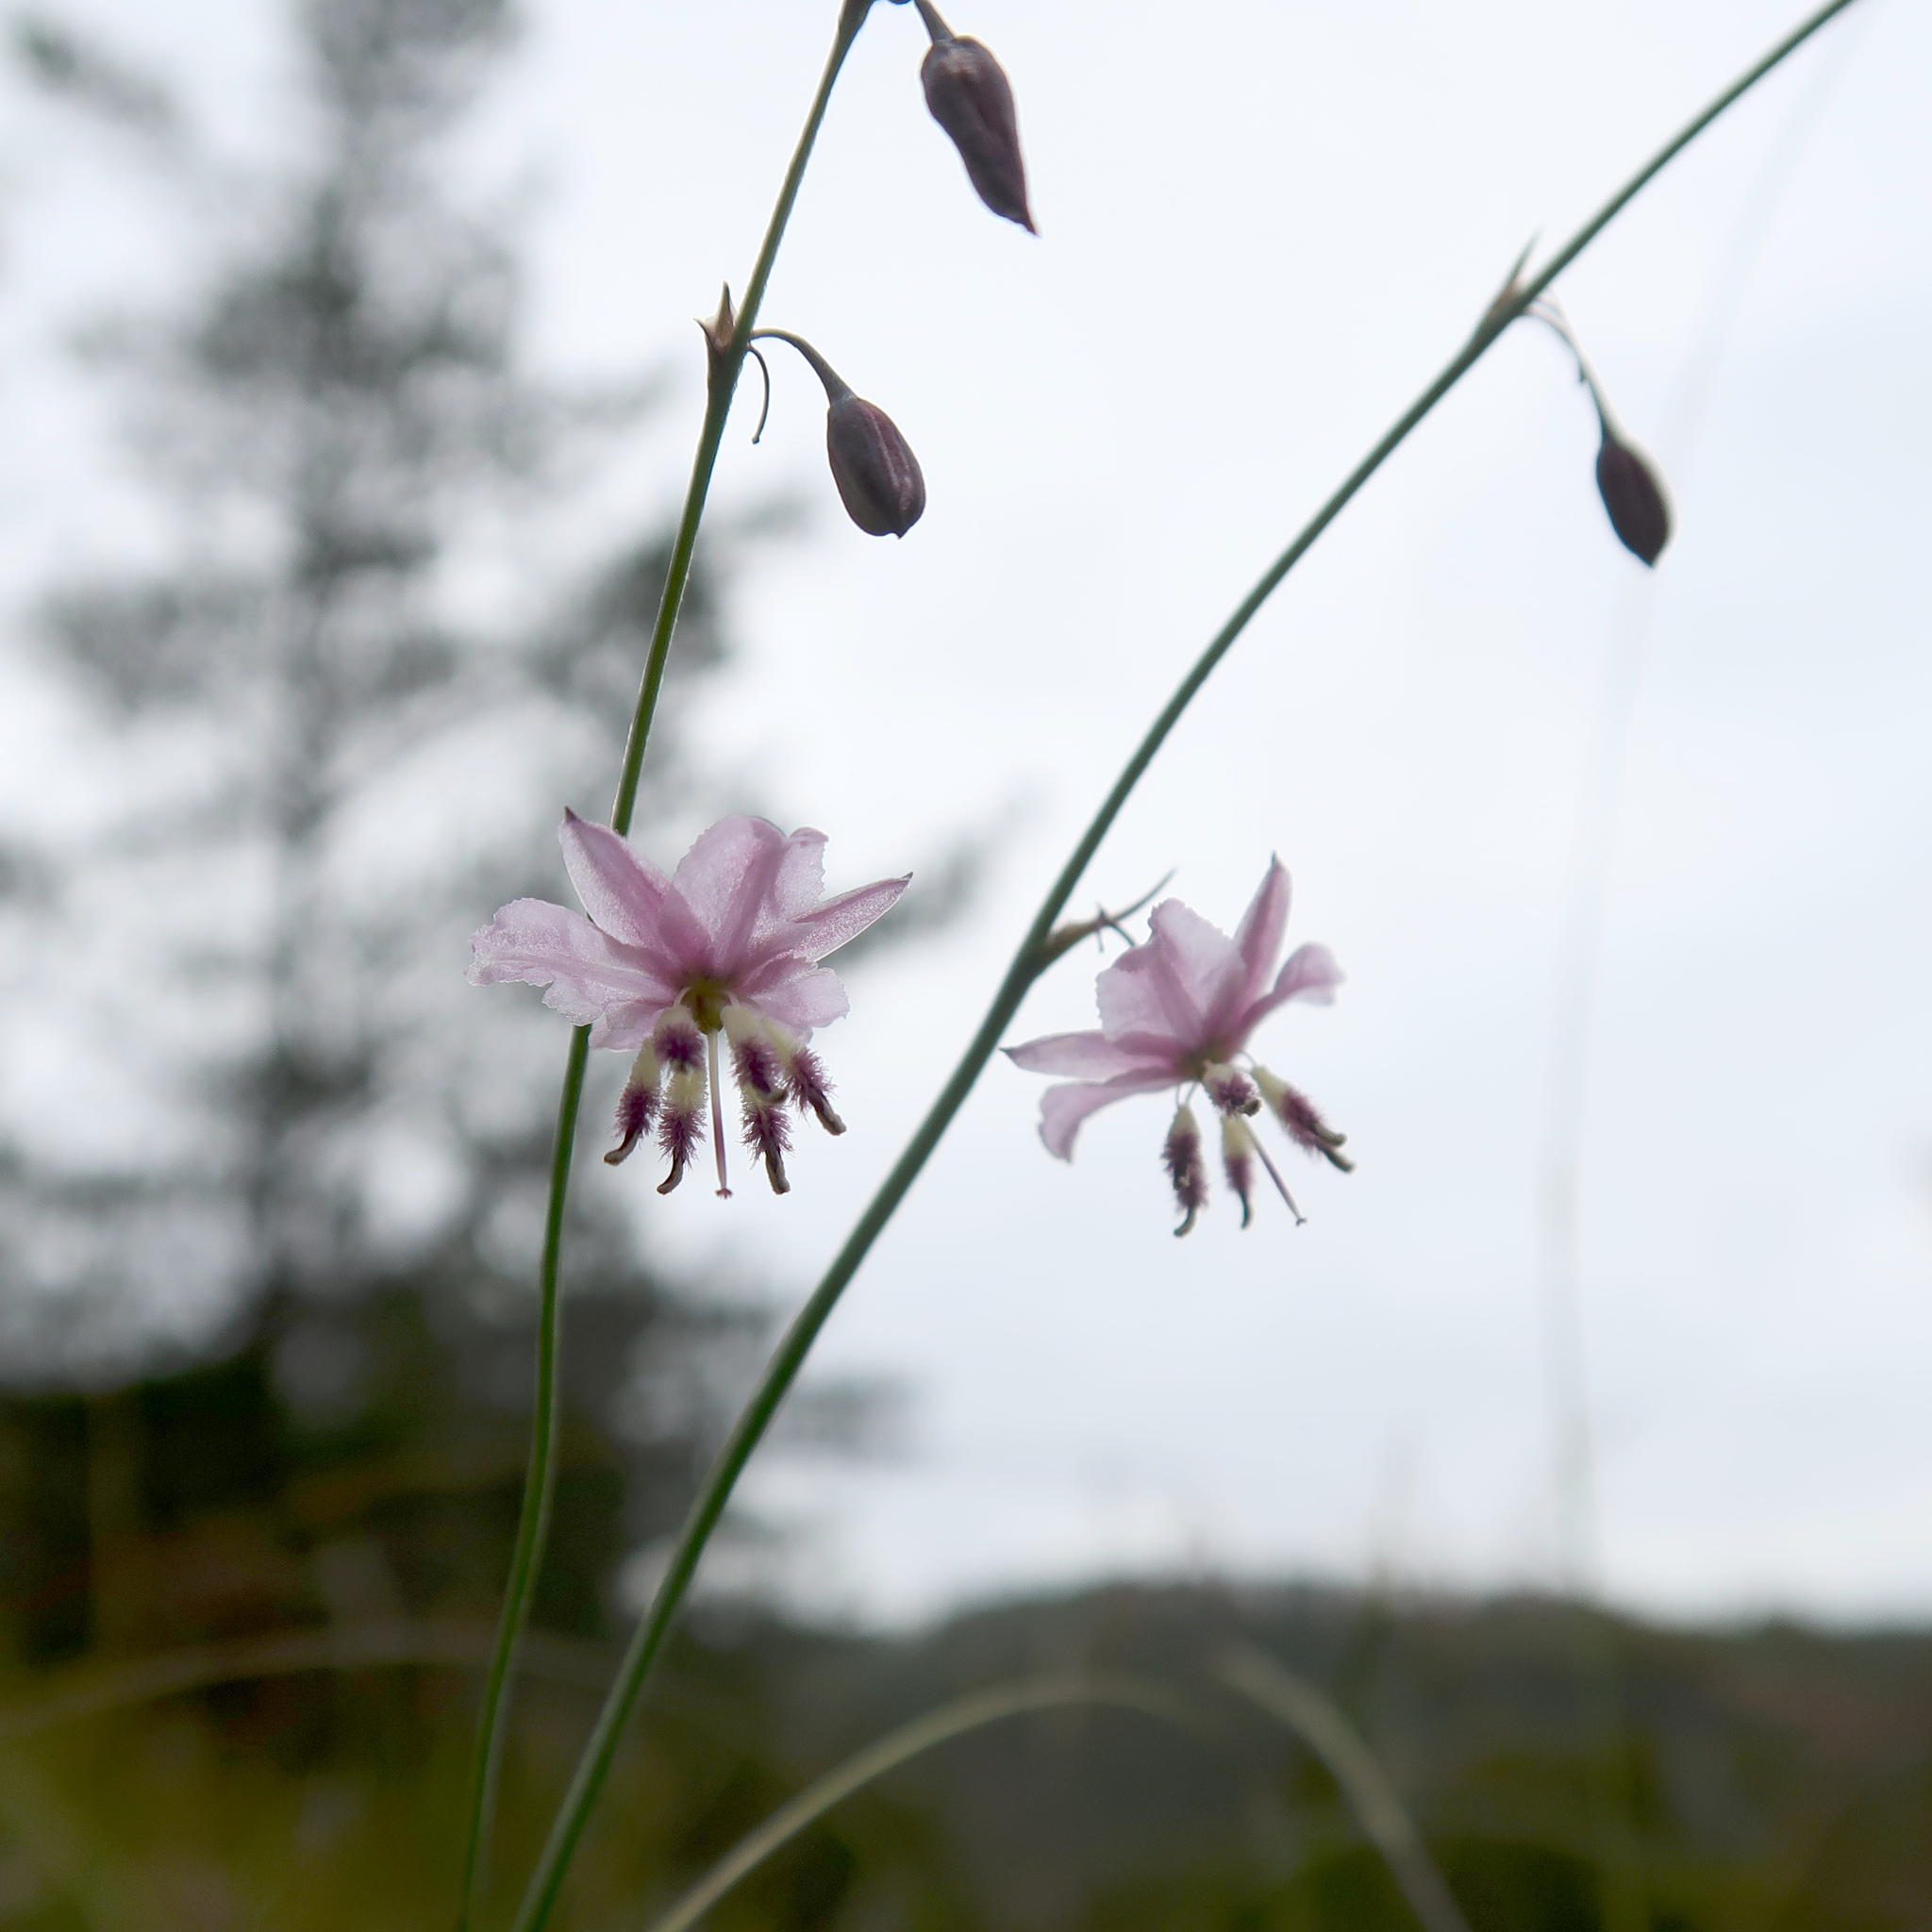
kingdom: Plantae
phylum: Tracheophyta
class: Liliopsida
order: Asparagales
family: Asparagaceae
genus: Arthropodium
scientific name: Arthropodium pendulum
